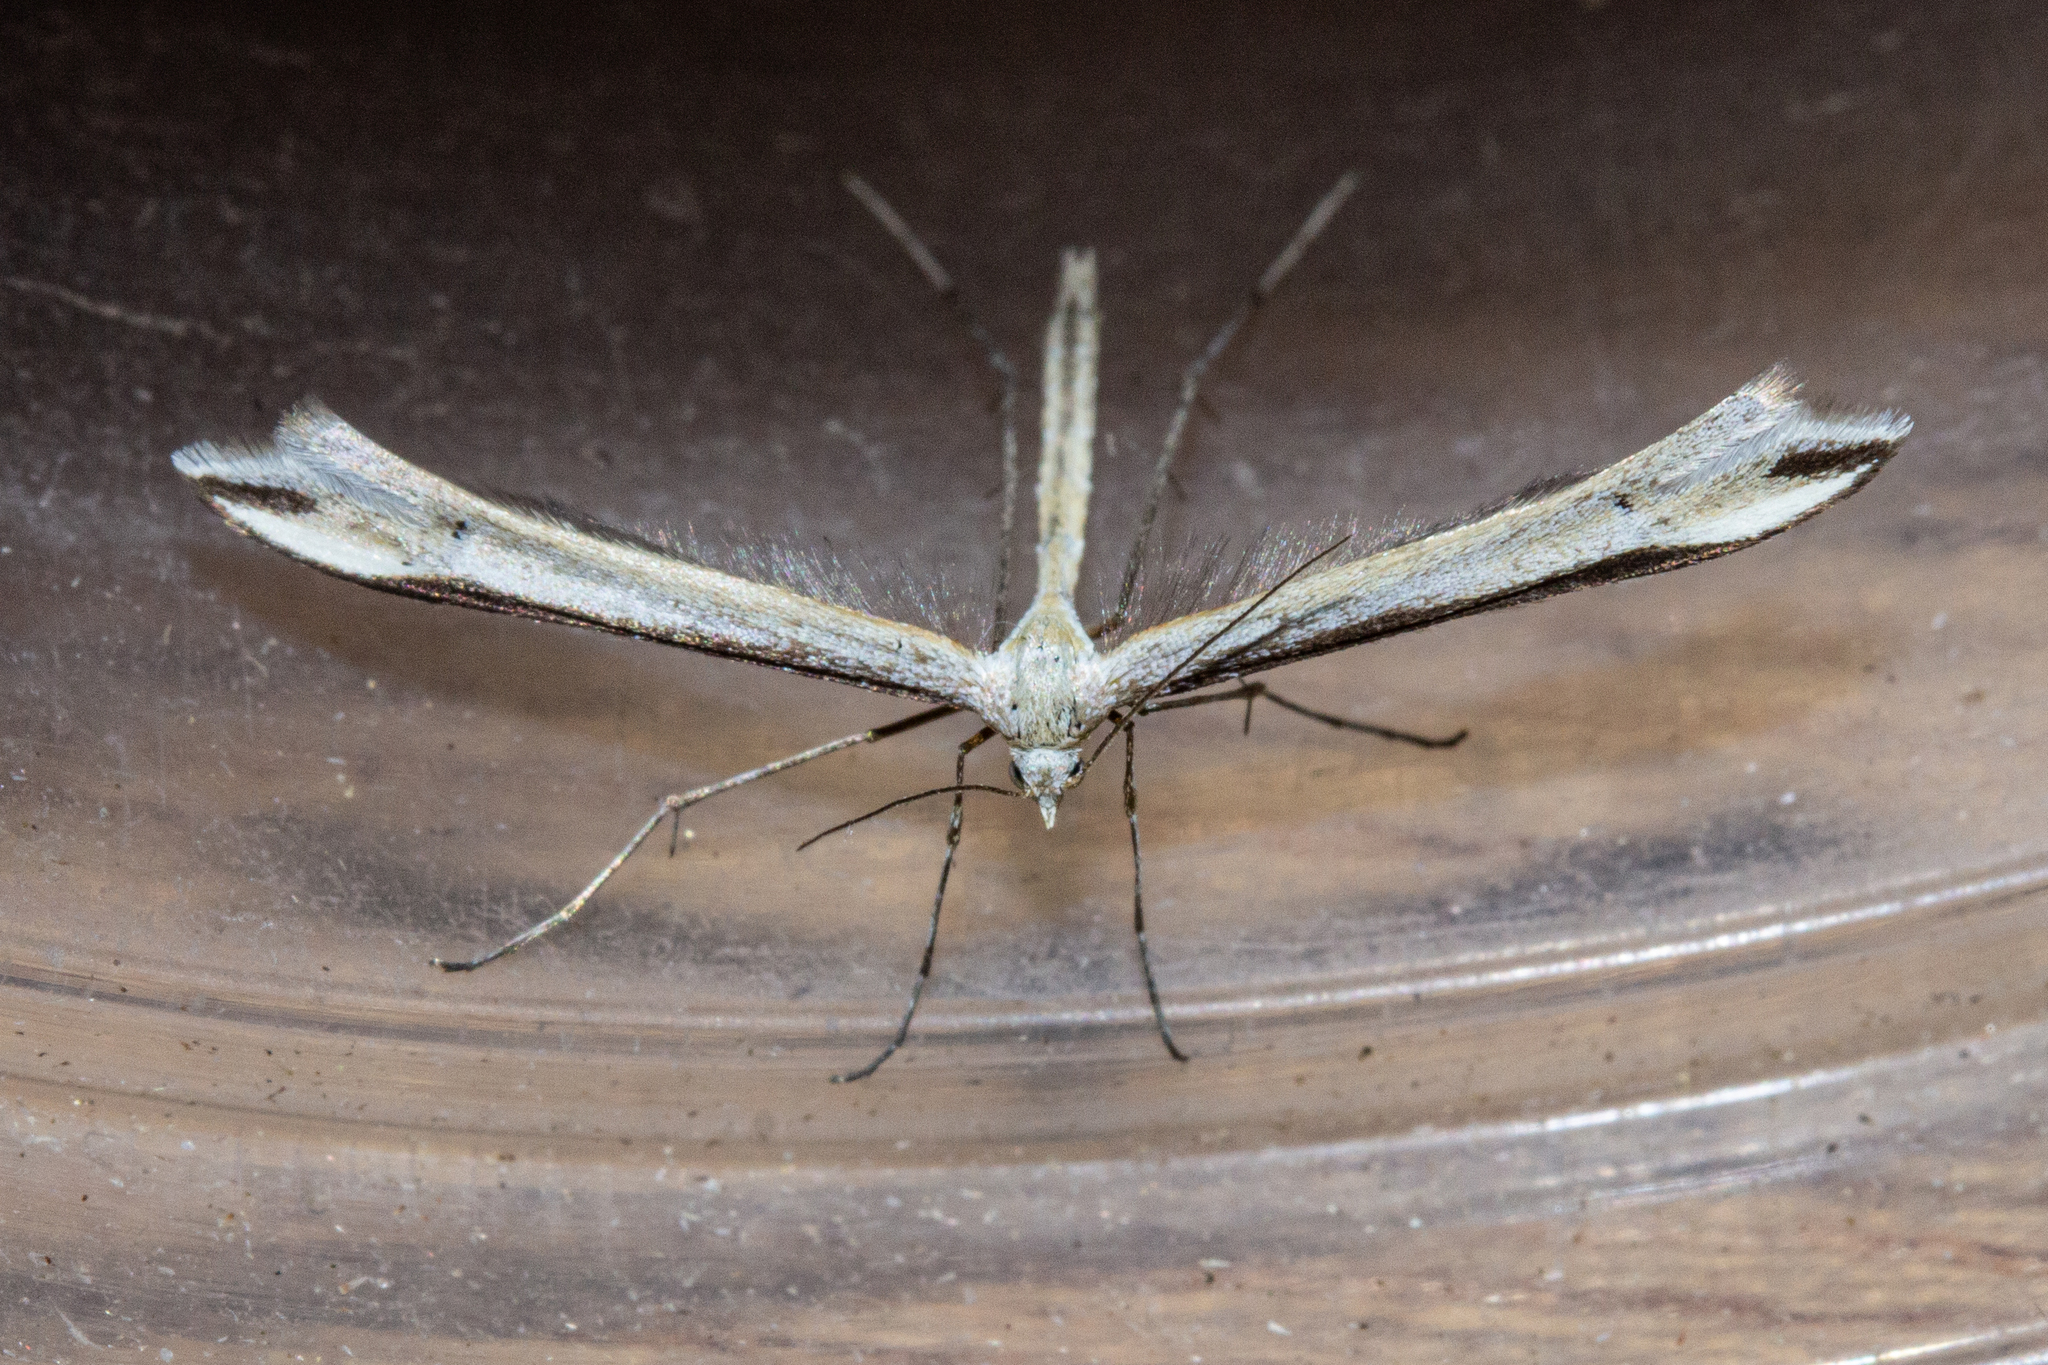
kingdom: Animalia
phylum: Arthropoda
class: Insecta
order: Lepidoptera
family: Pterophoridae
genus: Amblyptilia
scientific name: Amblyptilia epotis
